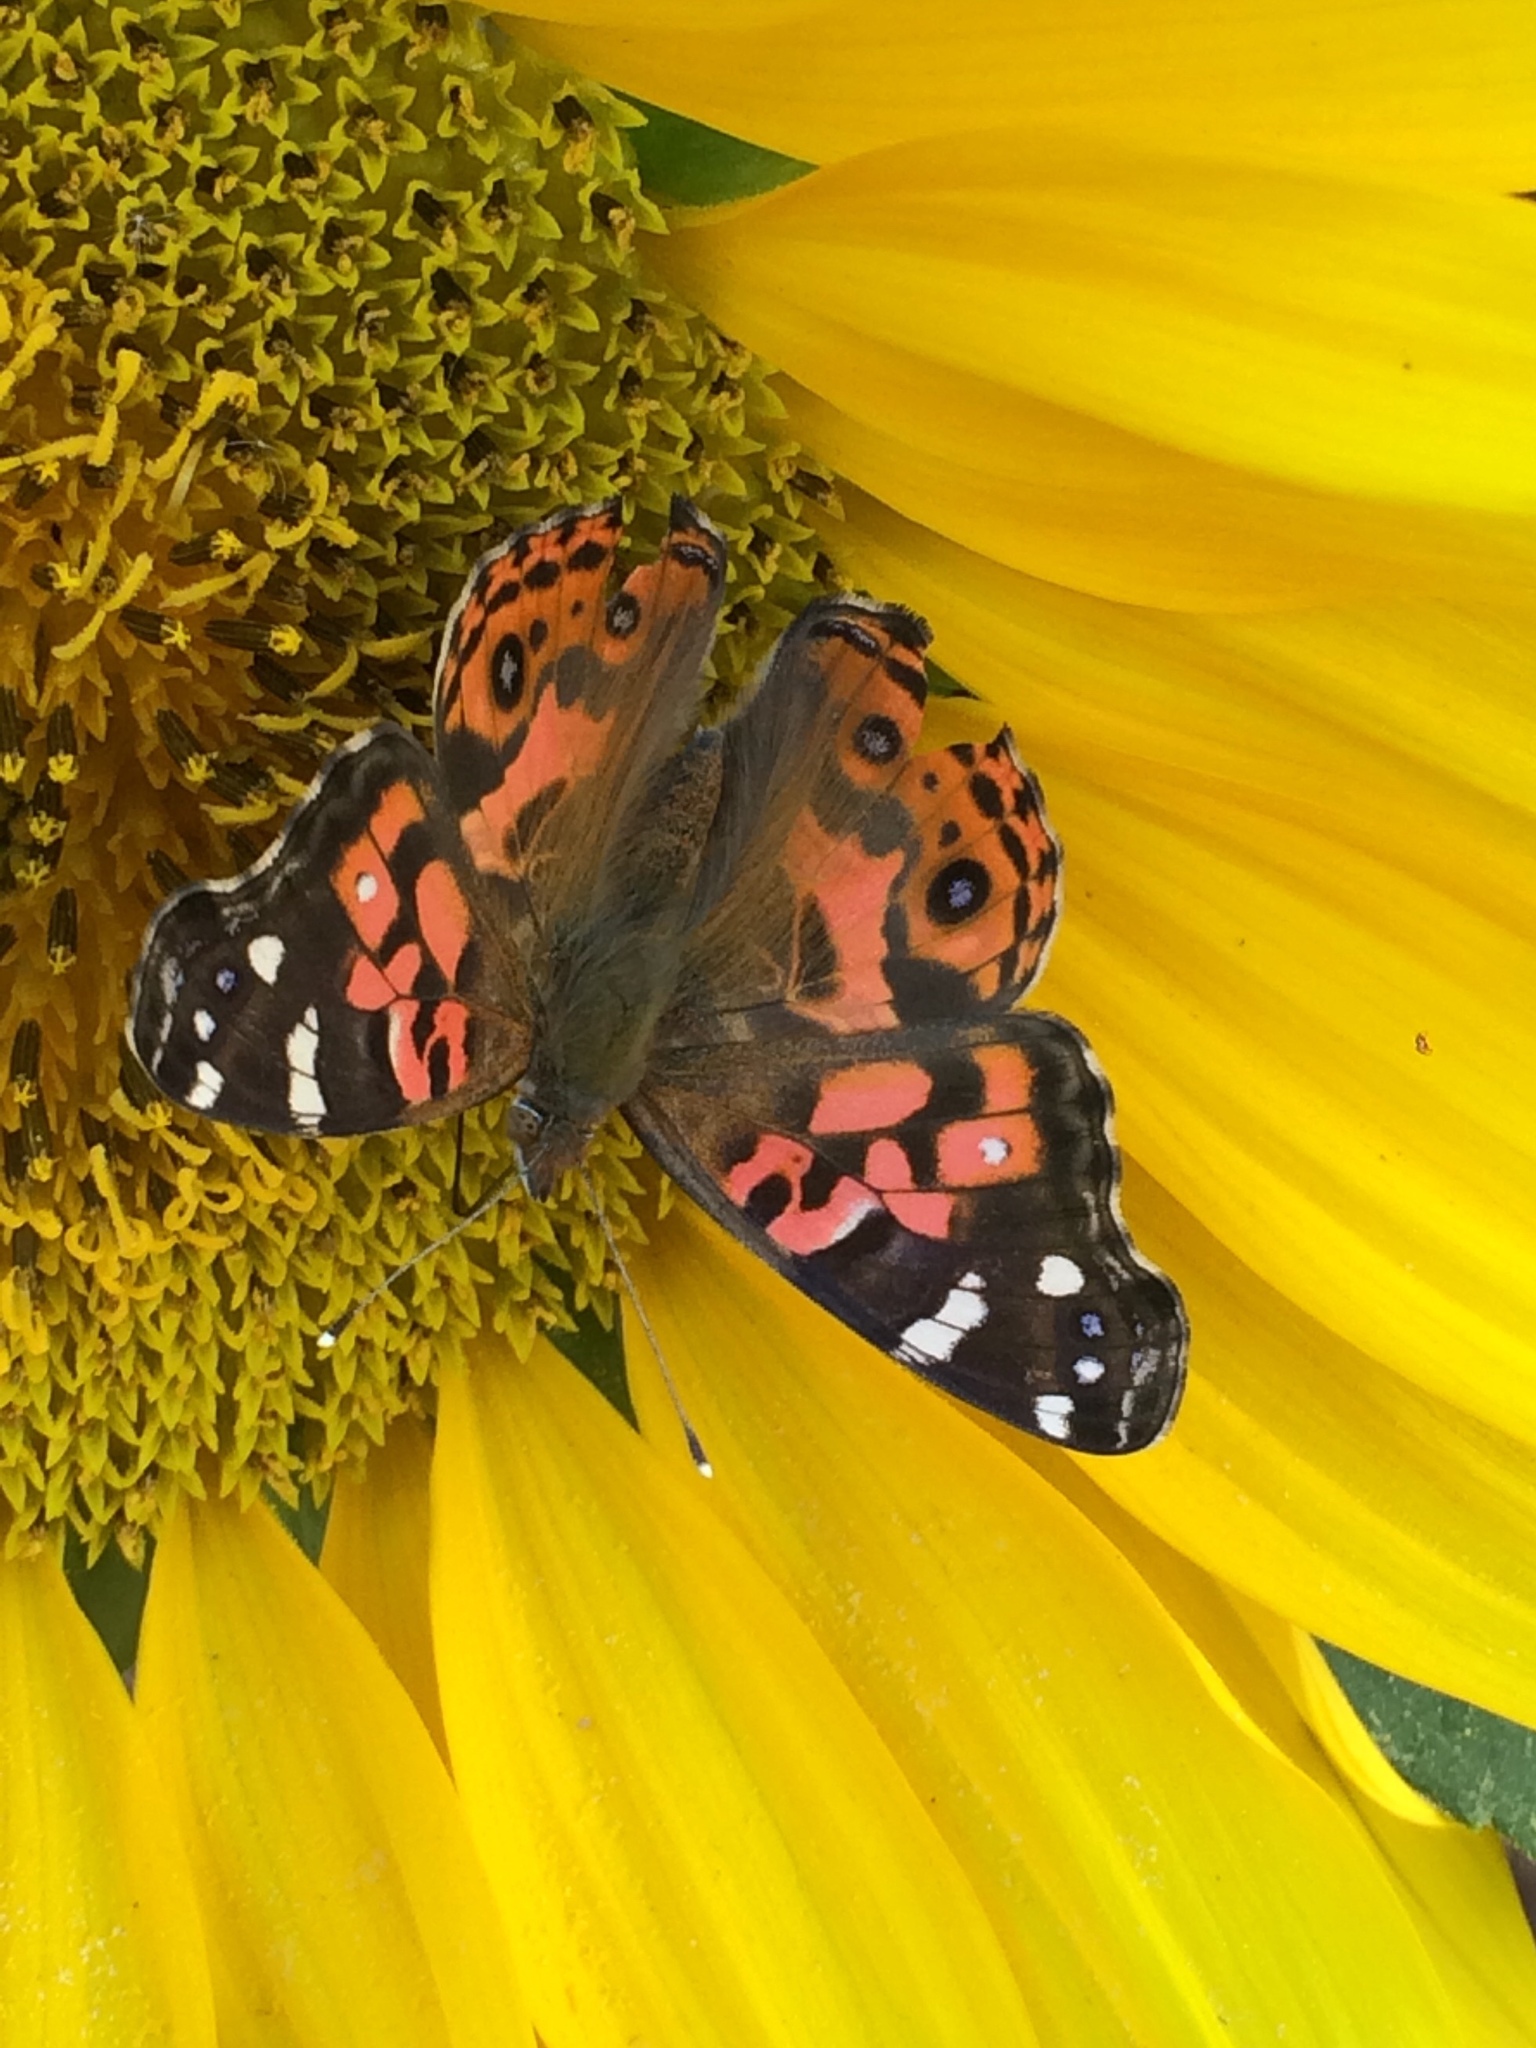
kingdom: Animalia
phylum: Arthropoda
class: Insecta
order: Lepidoptera
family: Nymphalidae
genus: Vanessa
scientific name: Vanessa braziliensis
